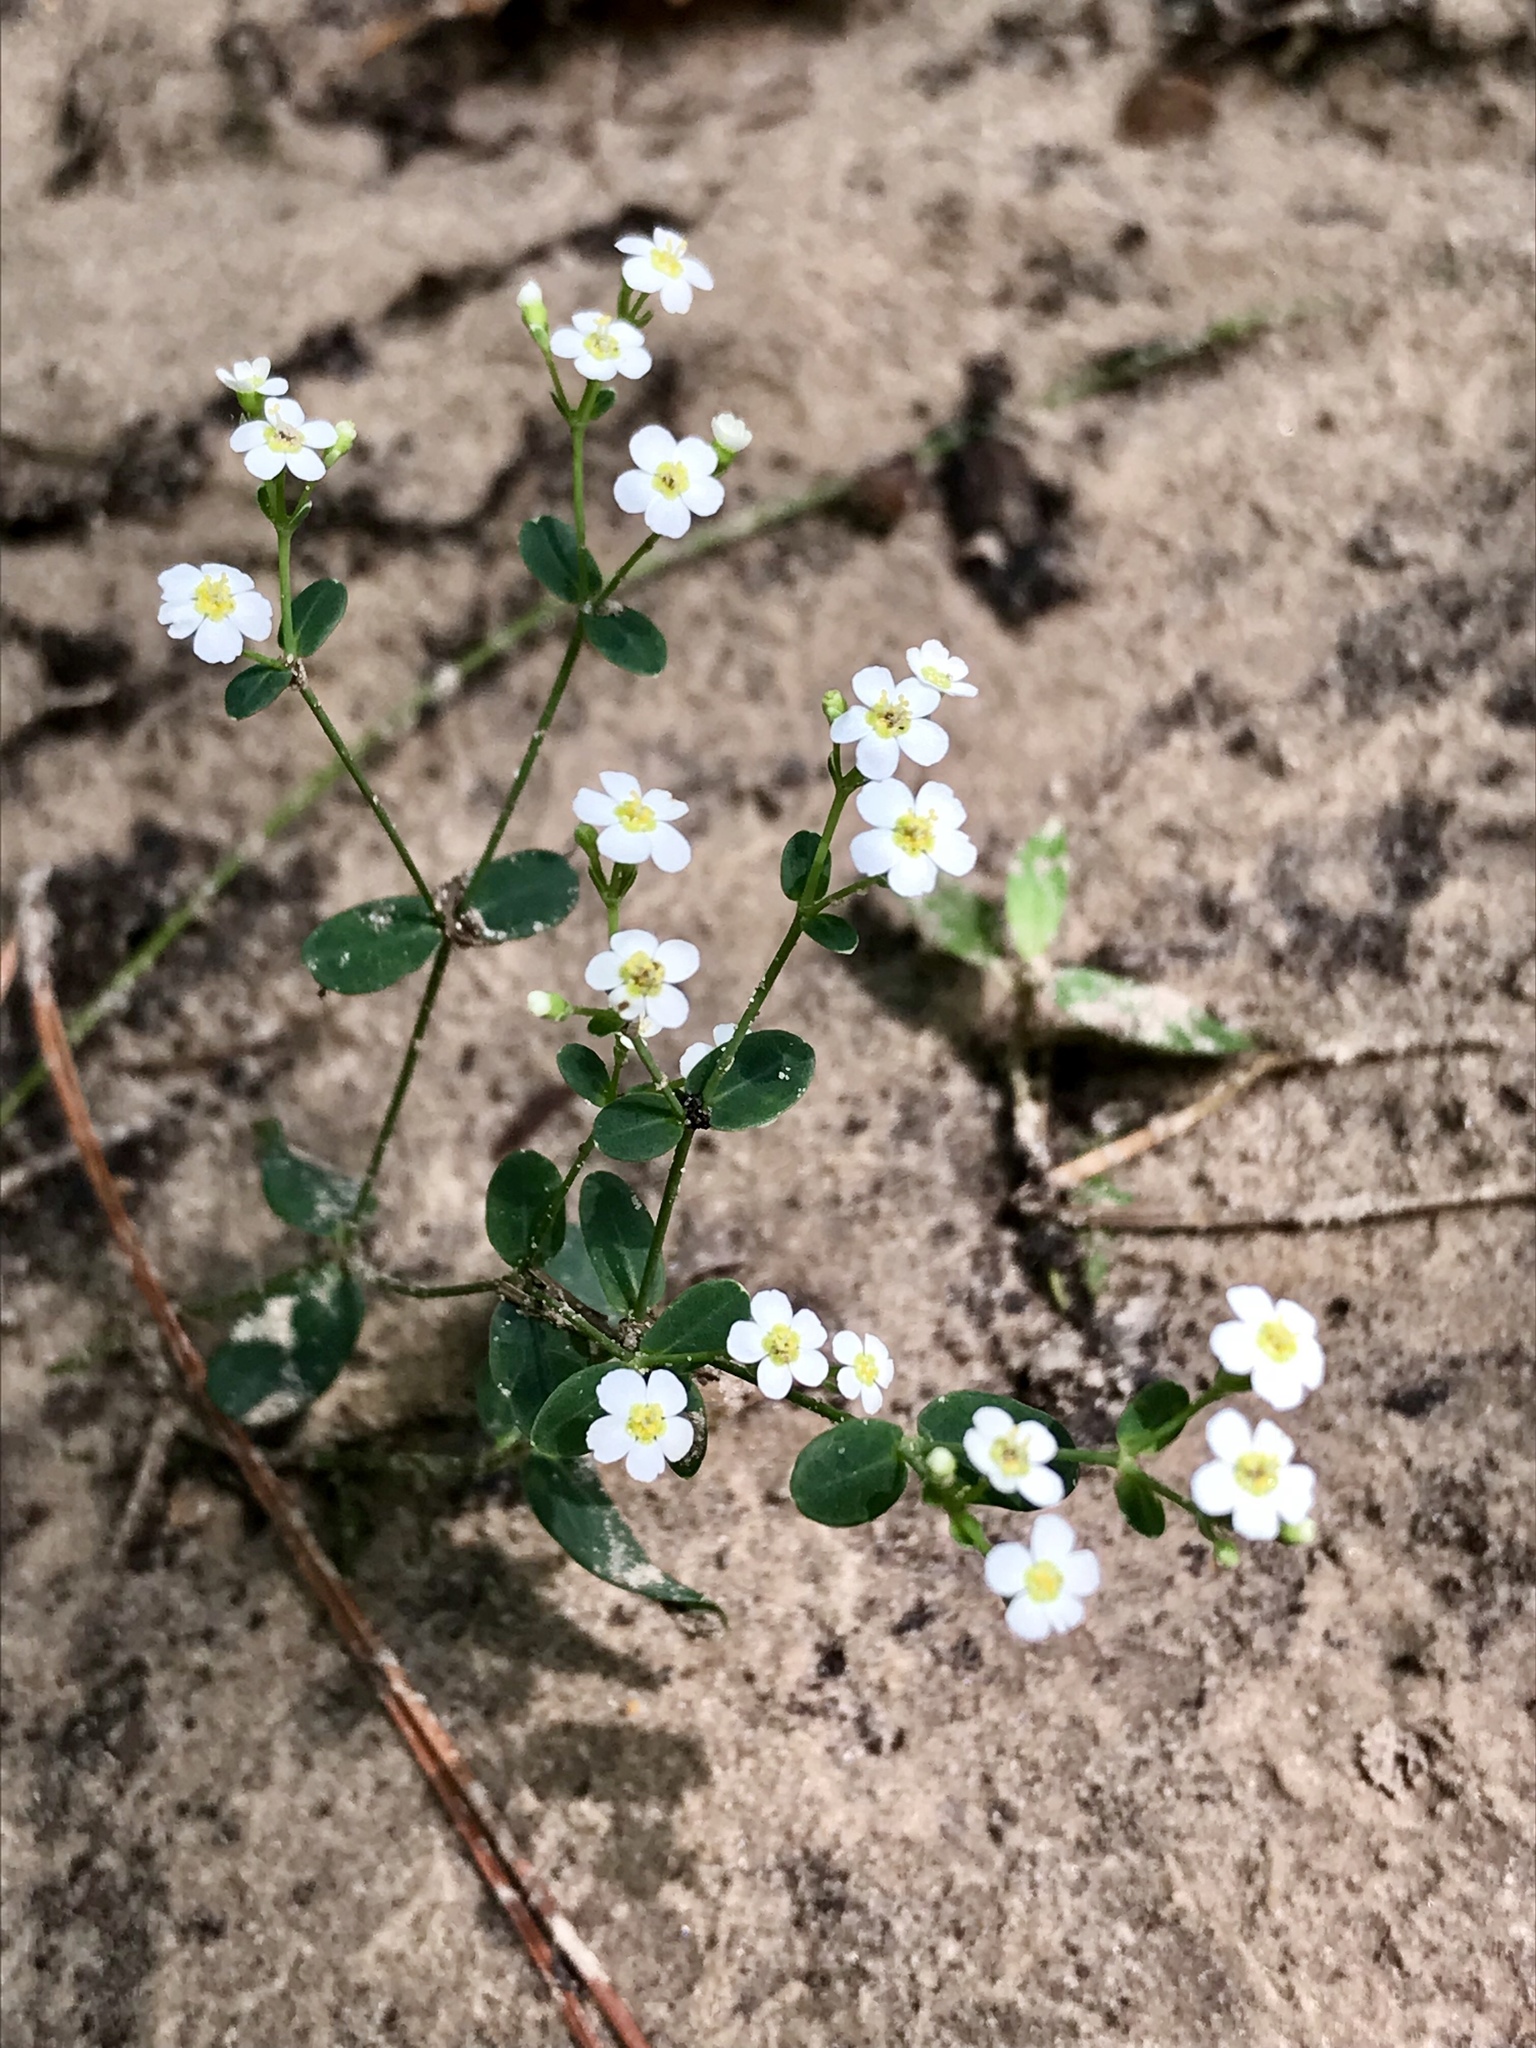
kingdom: Plantae
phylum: Tracheophyta
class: Magnoliopsida
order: Malpighiales
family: Euphorbiaceae
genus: Euphorbia
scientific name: Euphorbia corollata
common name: Flowering spurge
